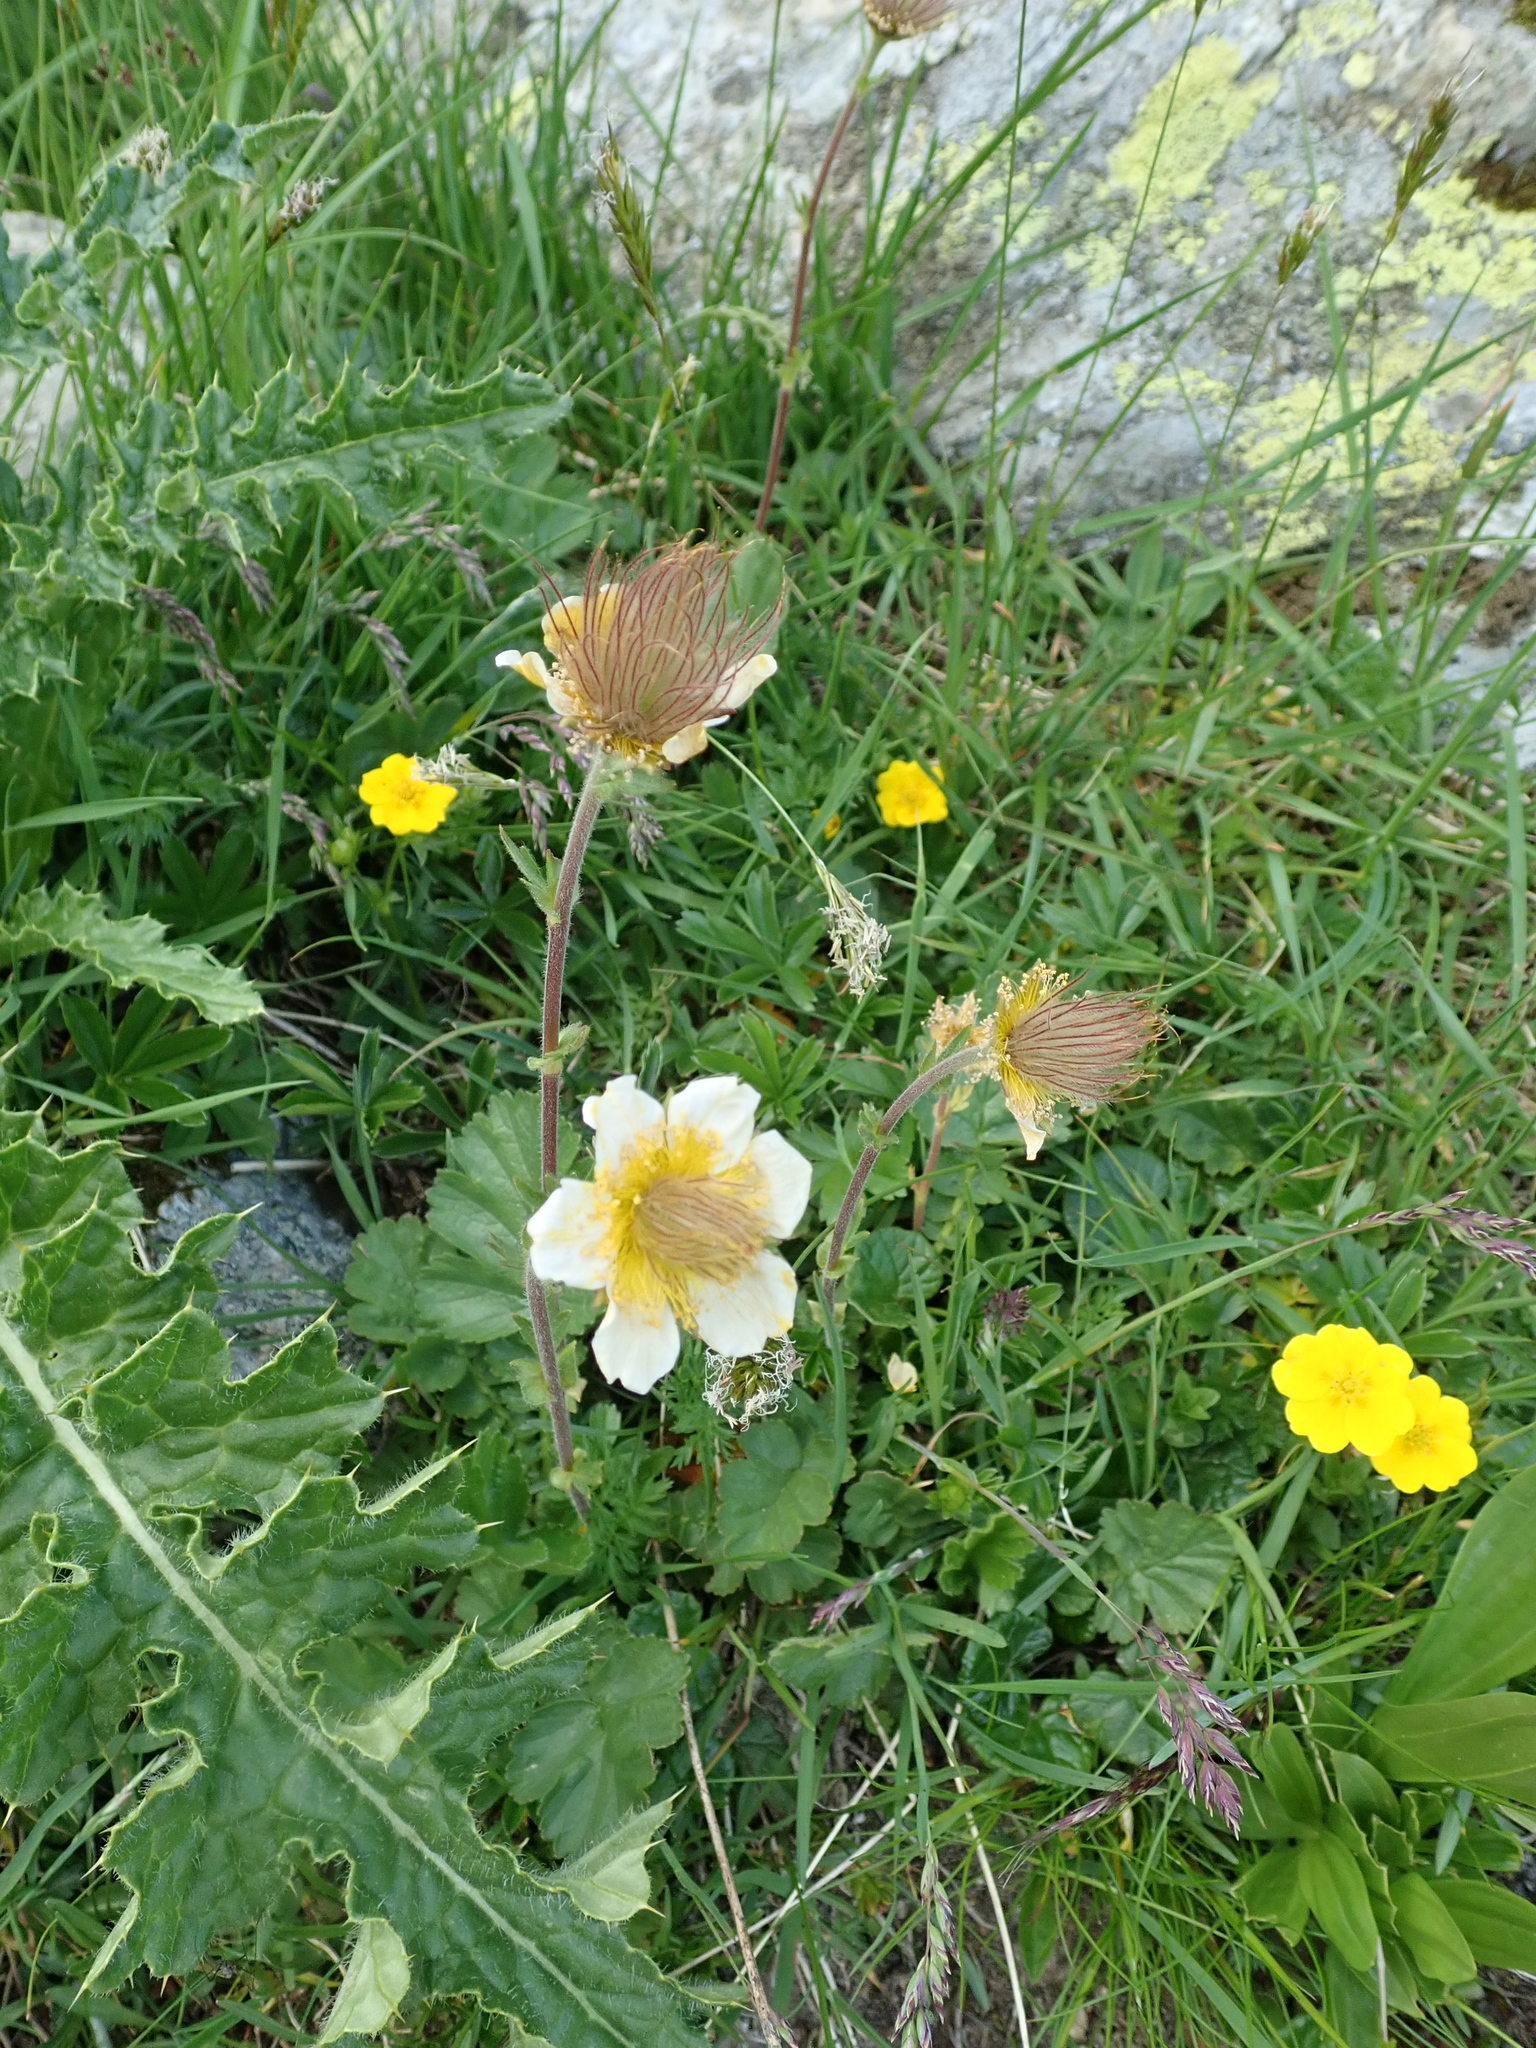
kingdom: Plantae
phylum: Tracheophyta
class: Magnoliopsida
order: Rosales
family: Rosaceae
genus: Geum
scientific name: Geum montanum
